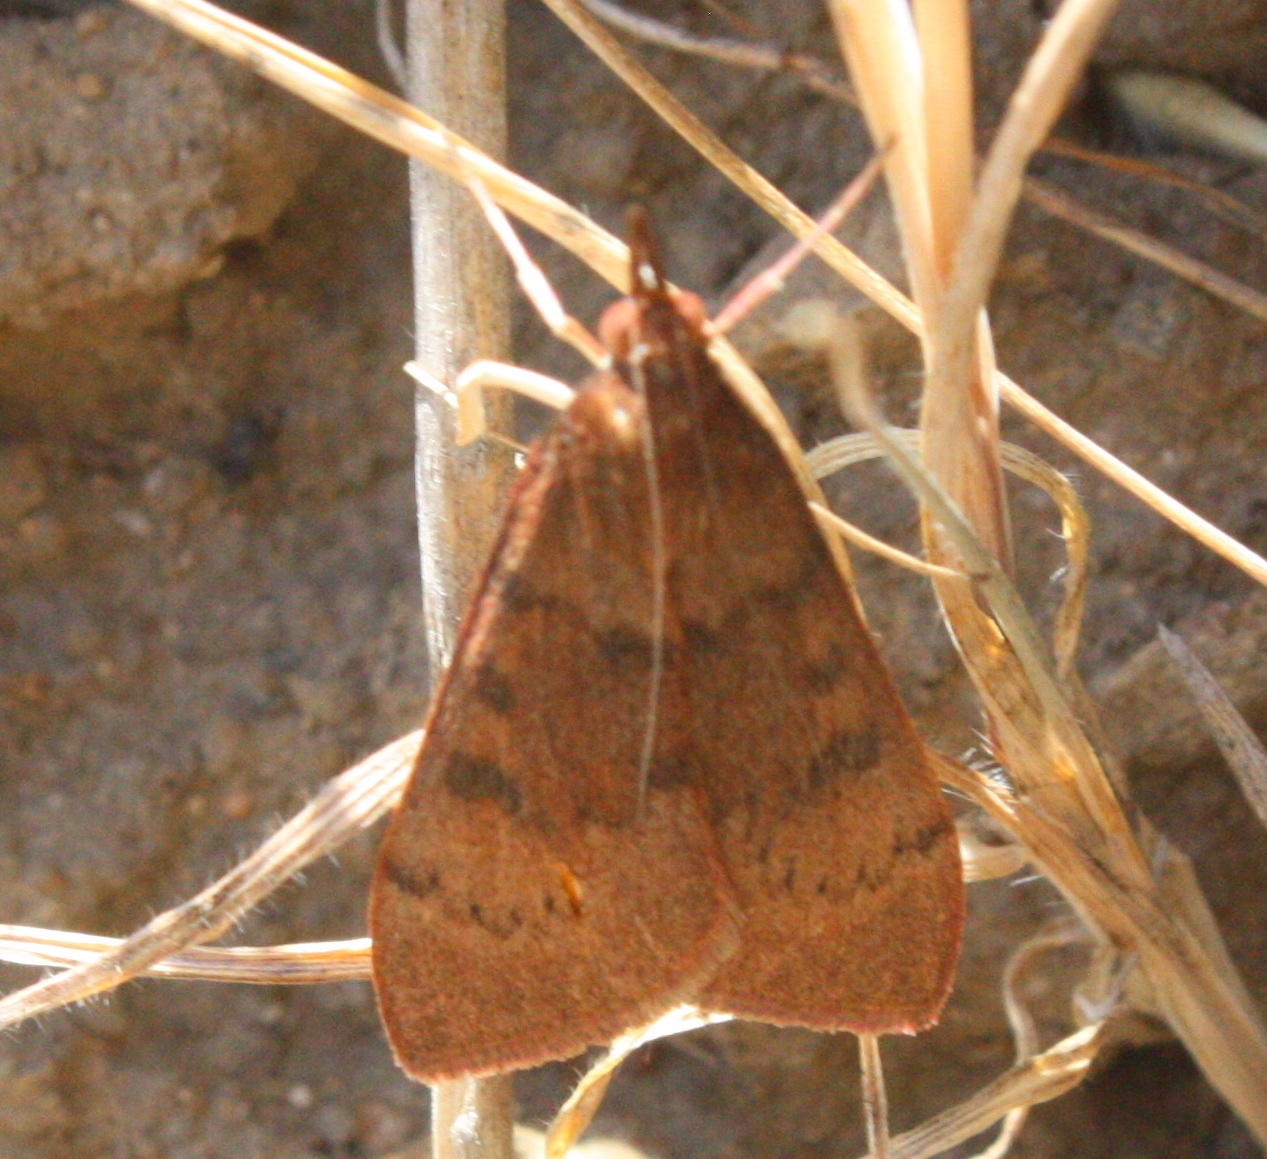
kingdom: Animalia
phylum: Arthropoda
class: Insecta
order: Lepidoptera
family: Crambidae
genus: Uresiphita
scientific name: Uresiphita reversalis
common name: Genista broom moth
